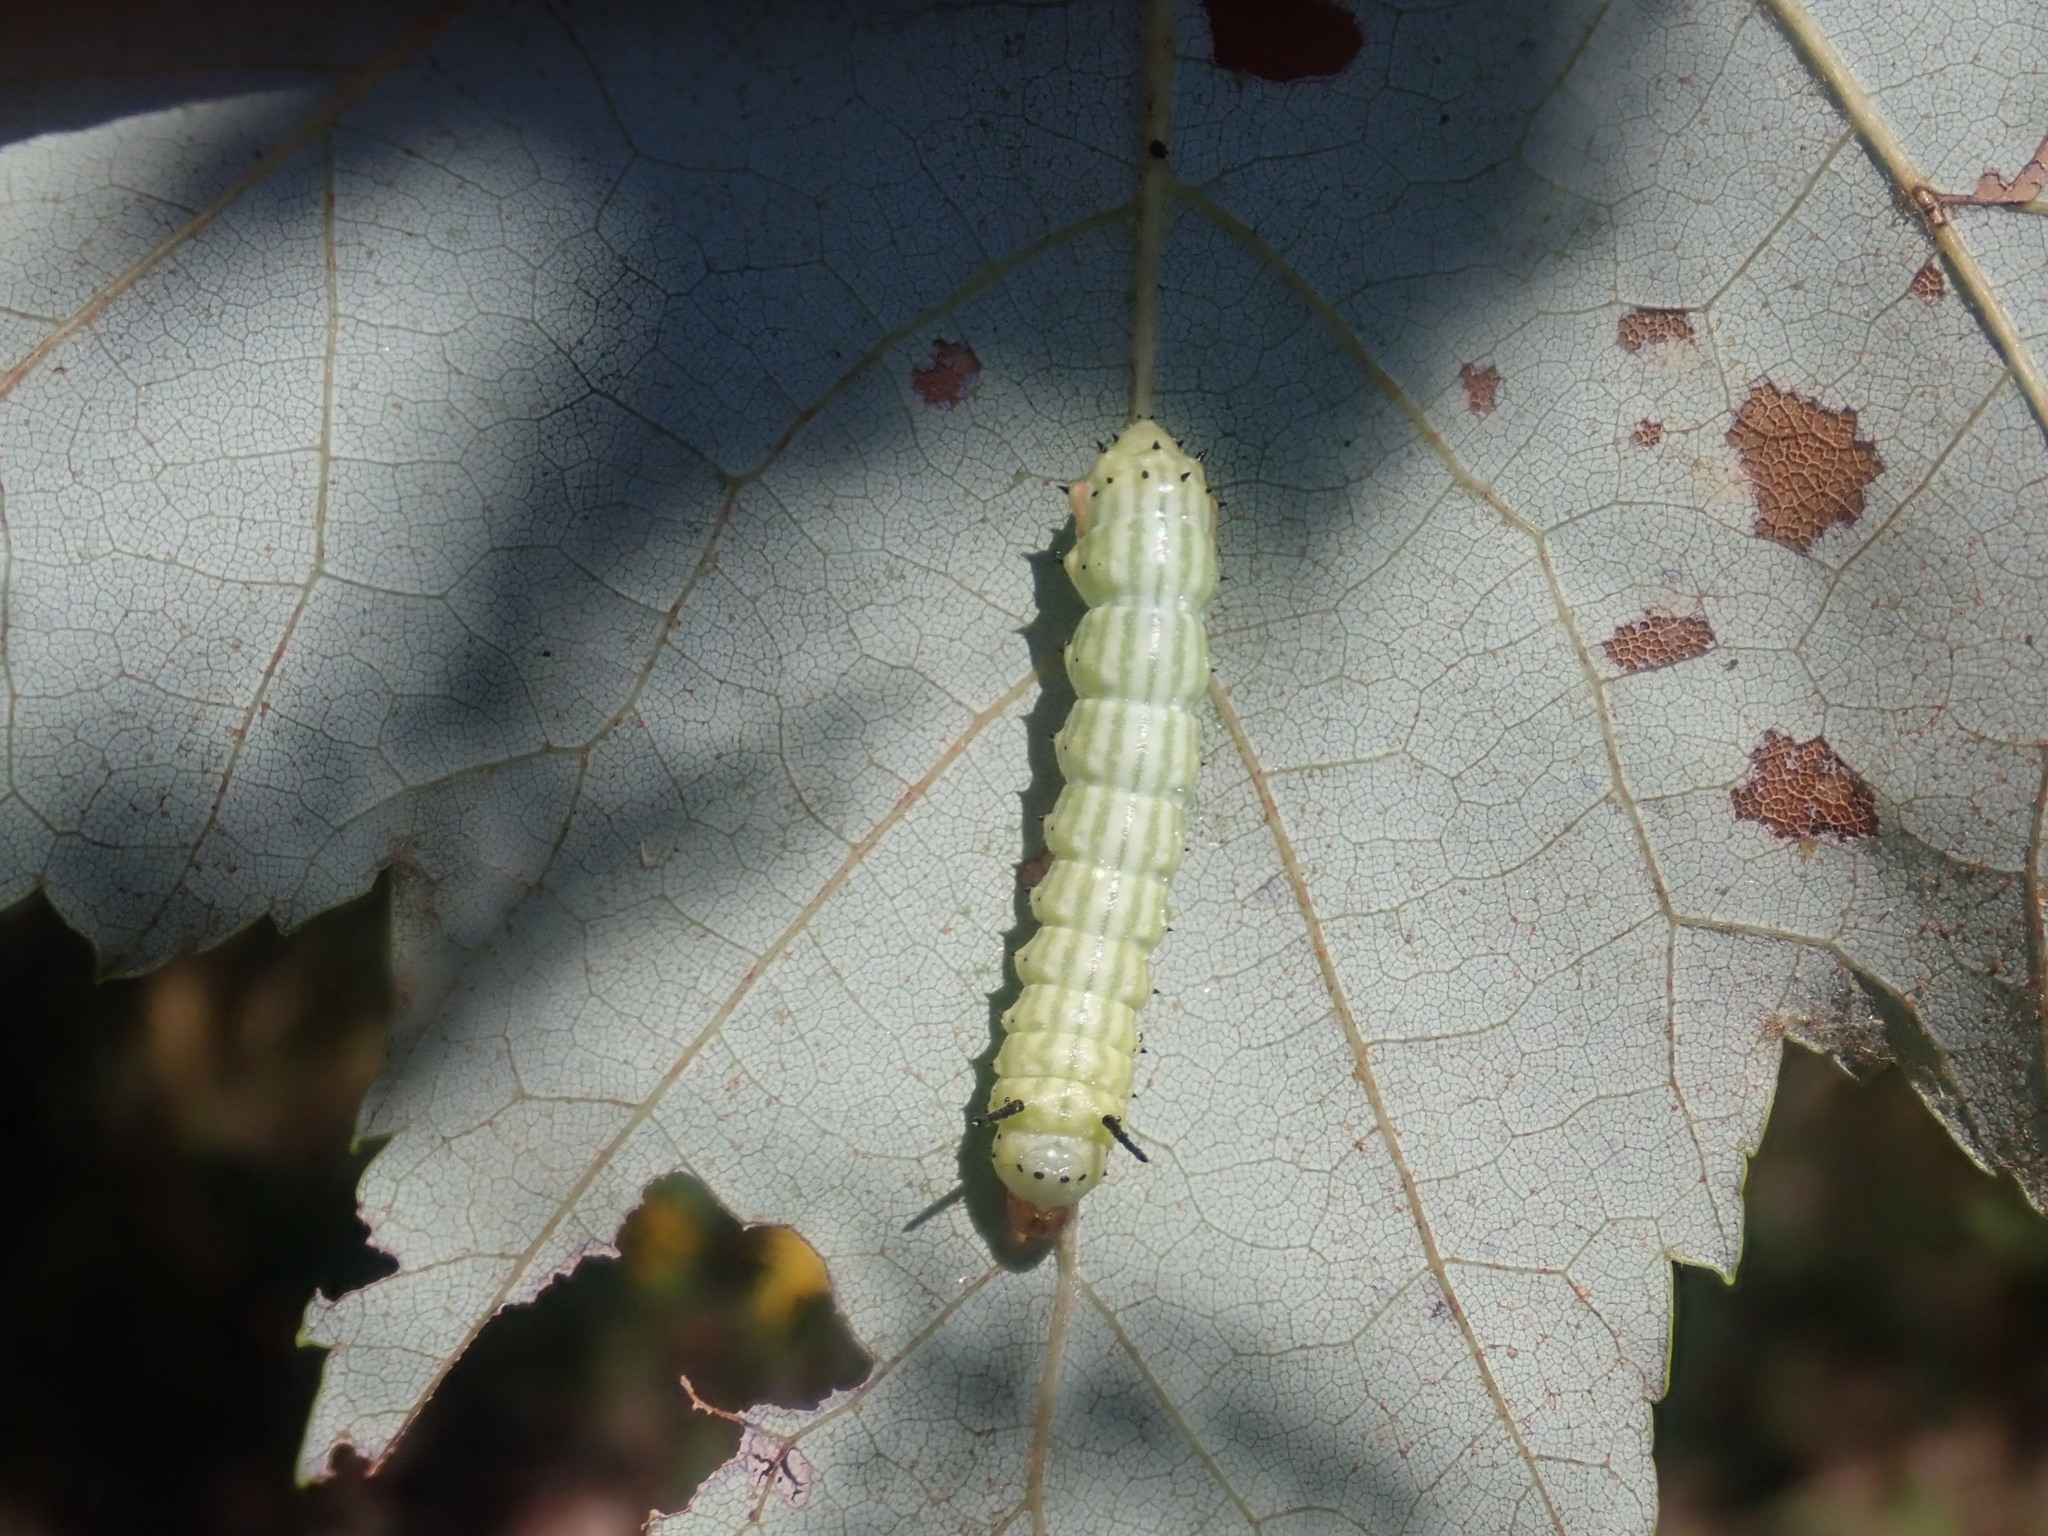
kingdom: Animalia
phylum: Arthropoda
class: Insecta
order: Lepidoptera
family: Saturniidae
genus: Dryocampa
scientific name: Dryocampa rubicunda
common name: Rosy maple moth
